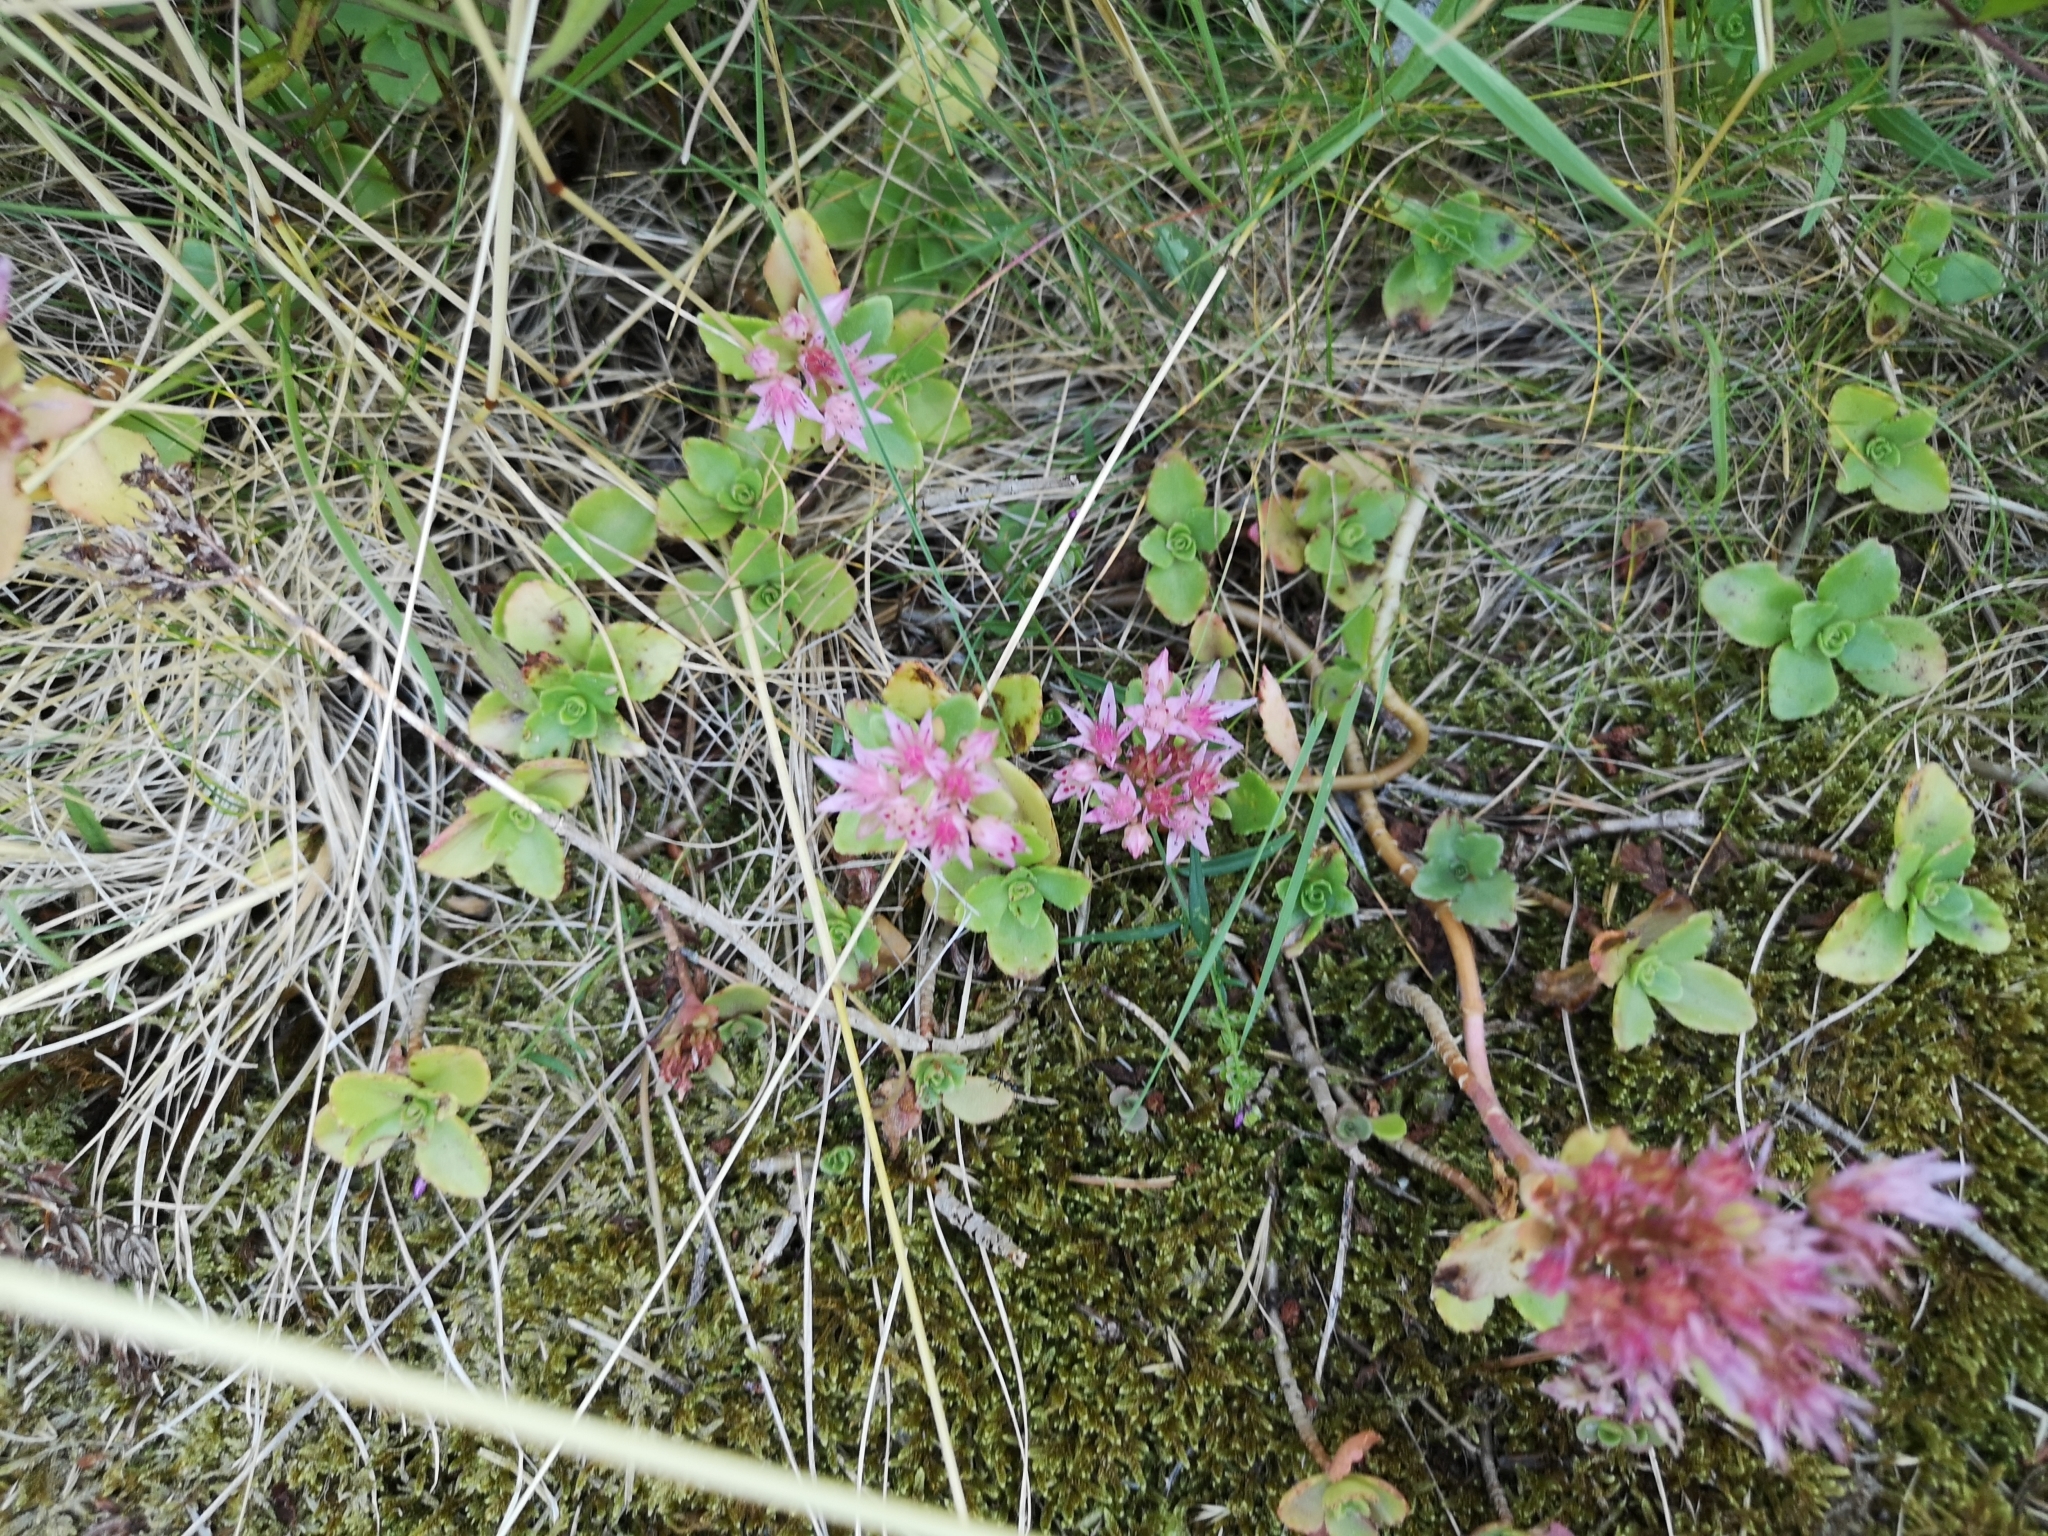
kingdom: Plantae
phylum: Tracheophyta
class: Magnoliopsida
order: Saxifragales
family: Crassulaceae
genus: Phedimus
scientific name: Phedimus spurius
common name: Caucasian stonecrop
